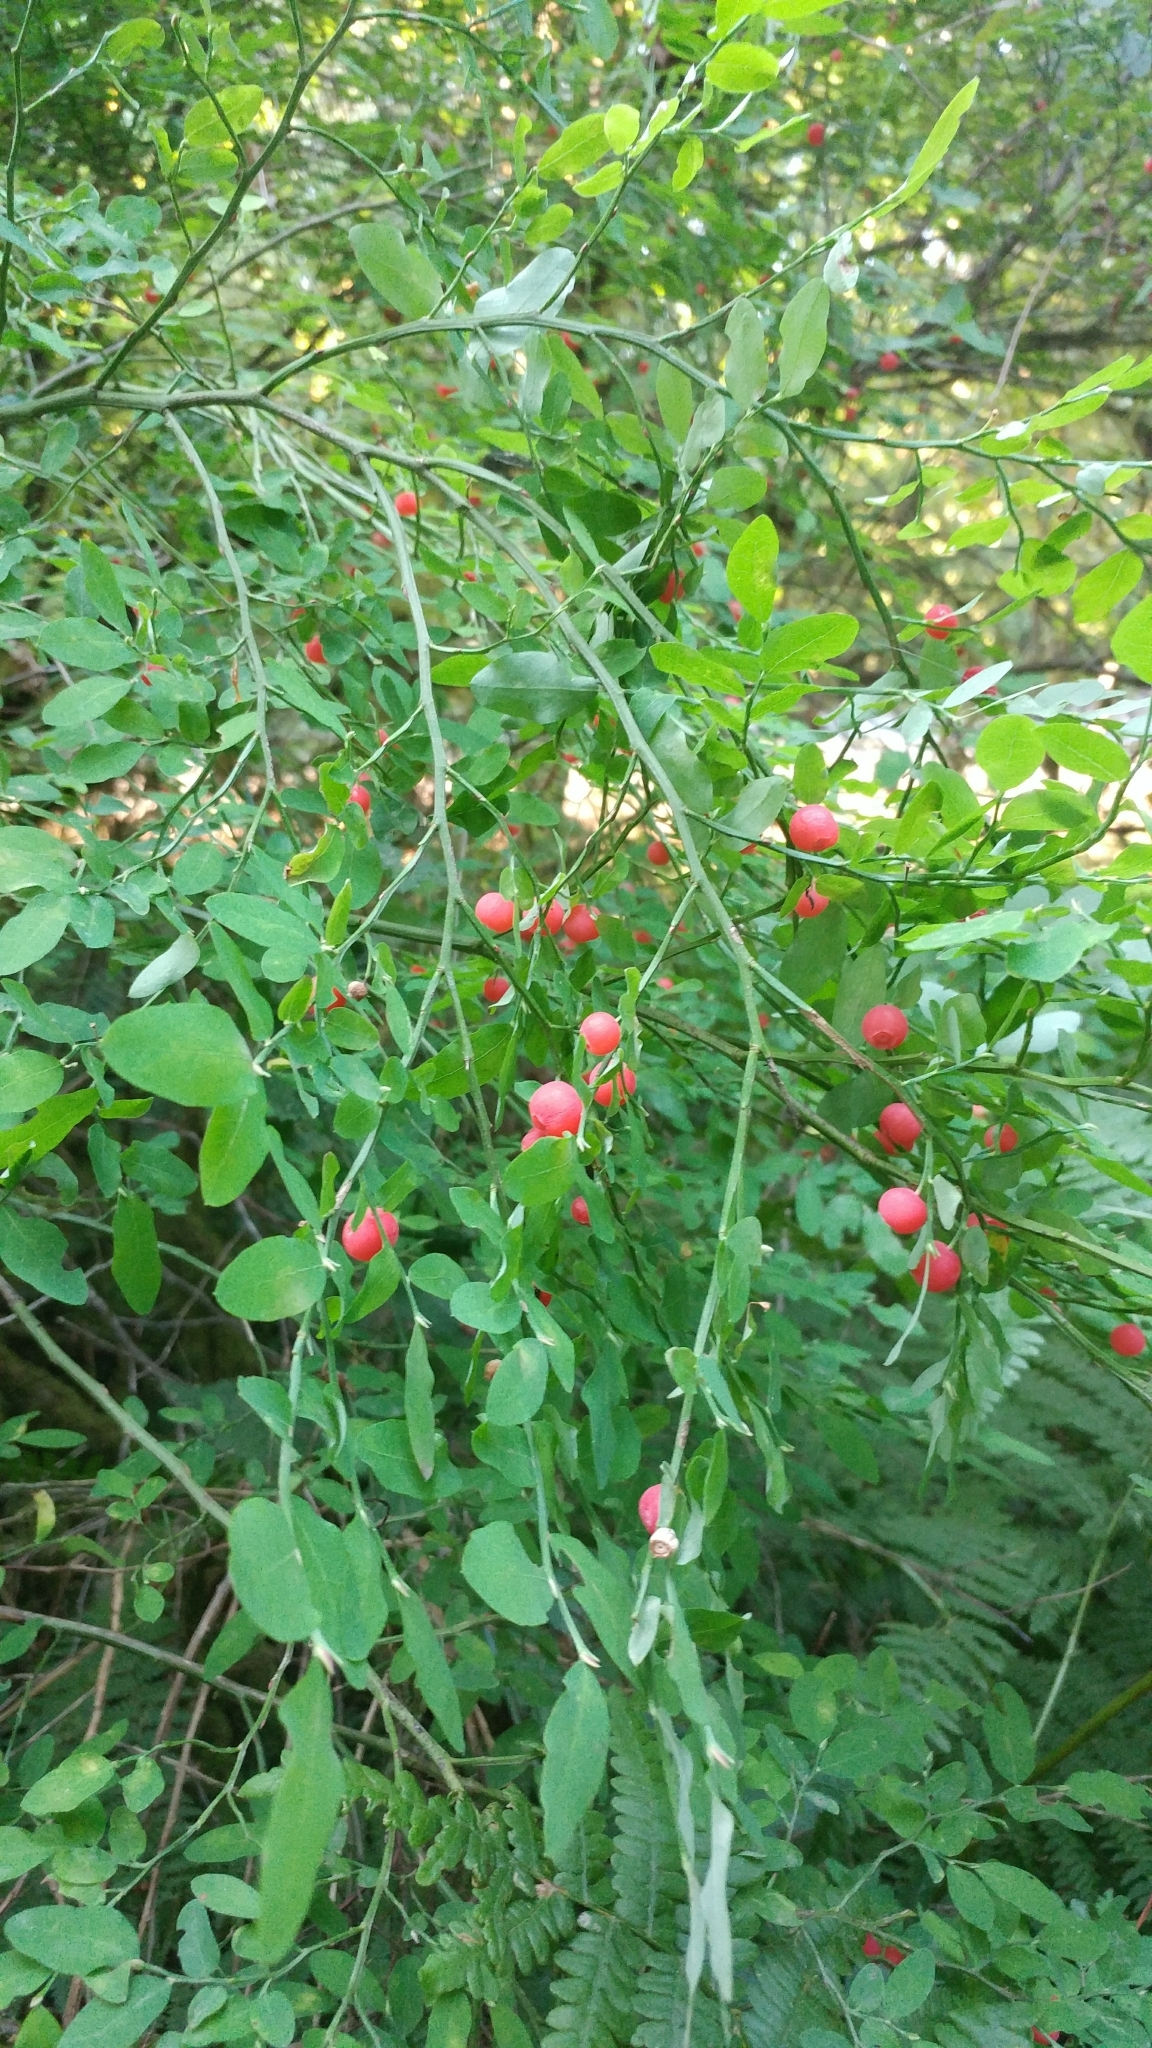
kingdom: Plantae
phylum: Tracheophyta
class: Magnoliopsida
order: Ericales
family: Ericaceae
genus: Vaccinium
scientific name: Vaccinium parvifolium
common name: Red-huckleberry
